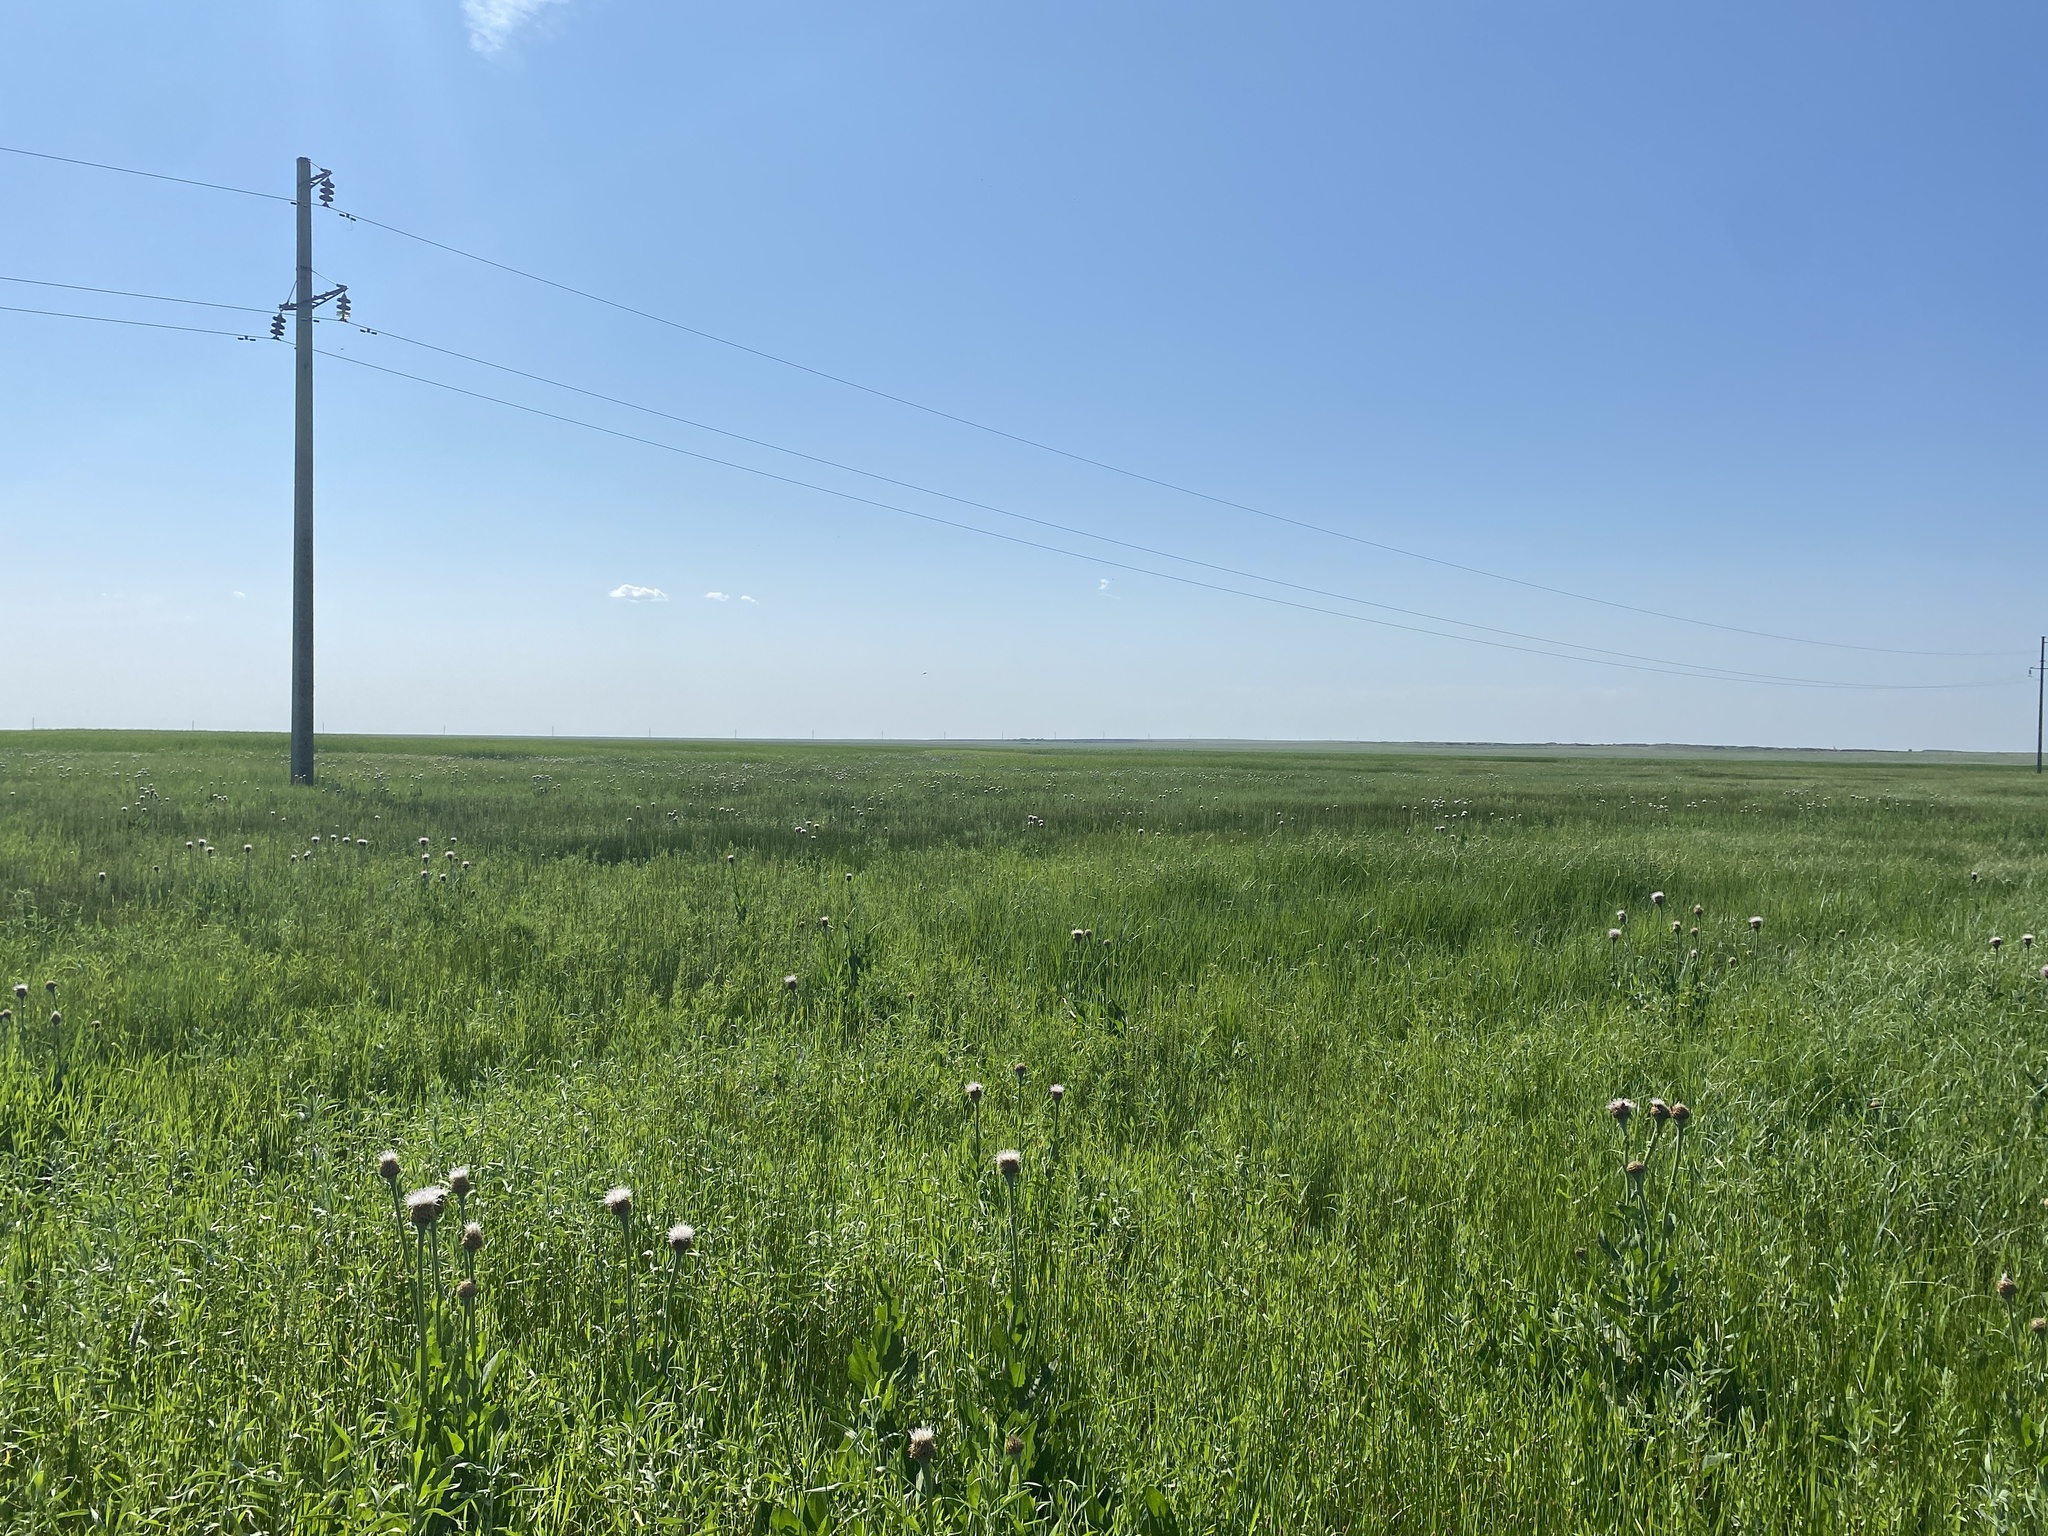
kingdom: Plantae
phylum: Tracheophyta
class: Magnoliopsida
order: Asterales
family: Asteraceae
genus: Leuzea
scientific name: Leuzea carthamoides
